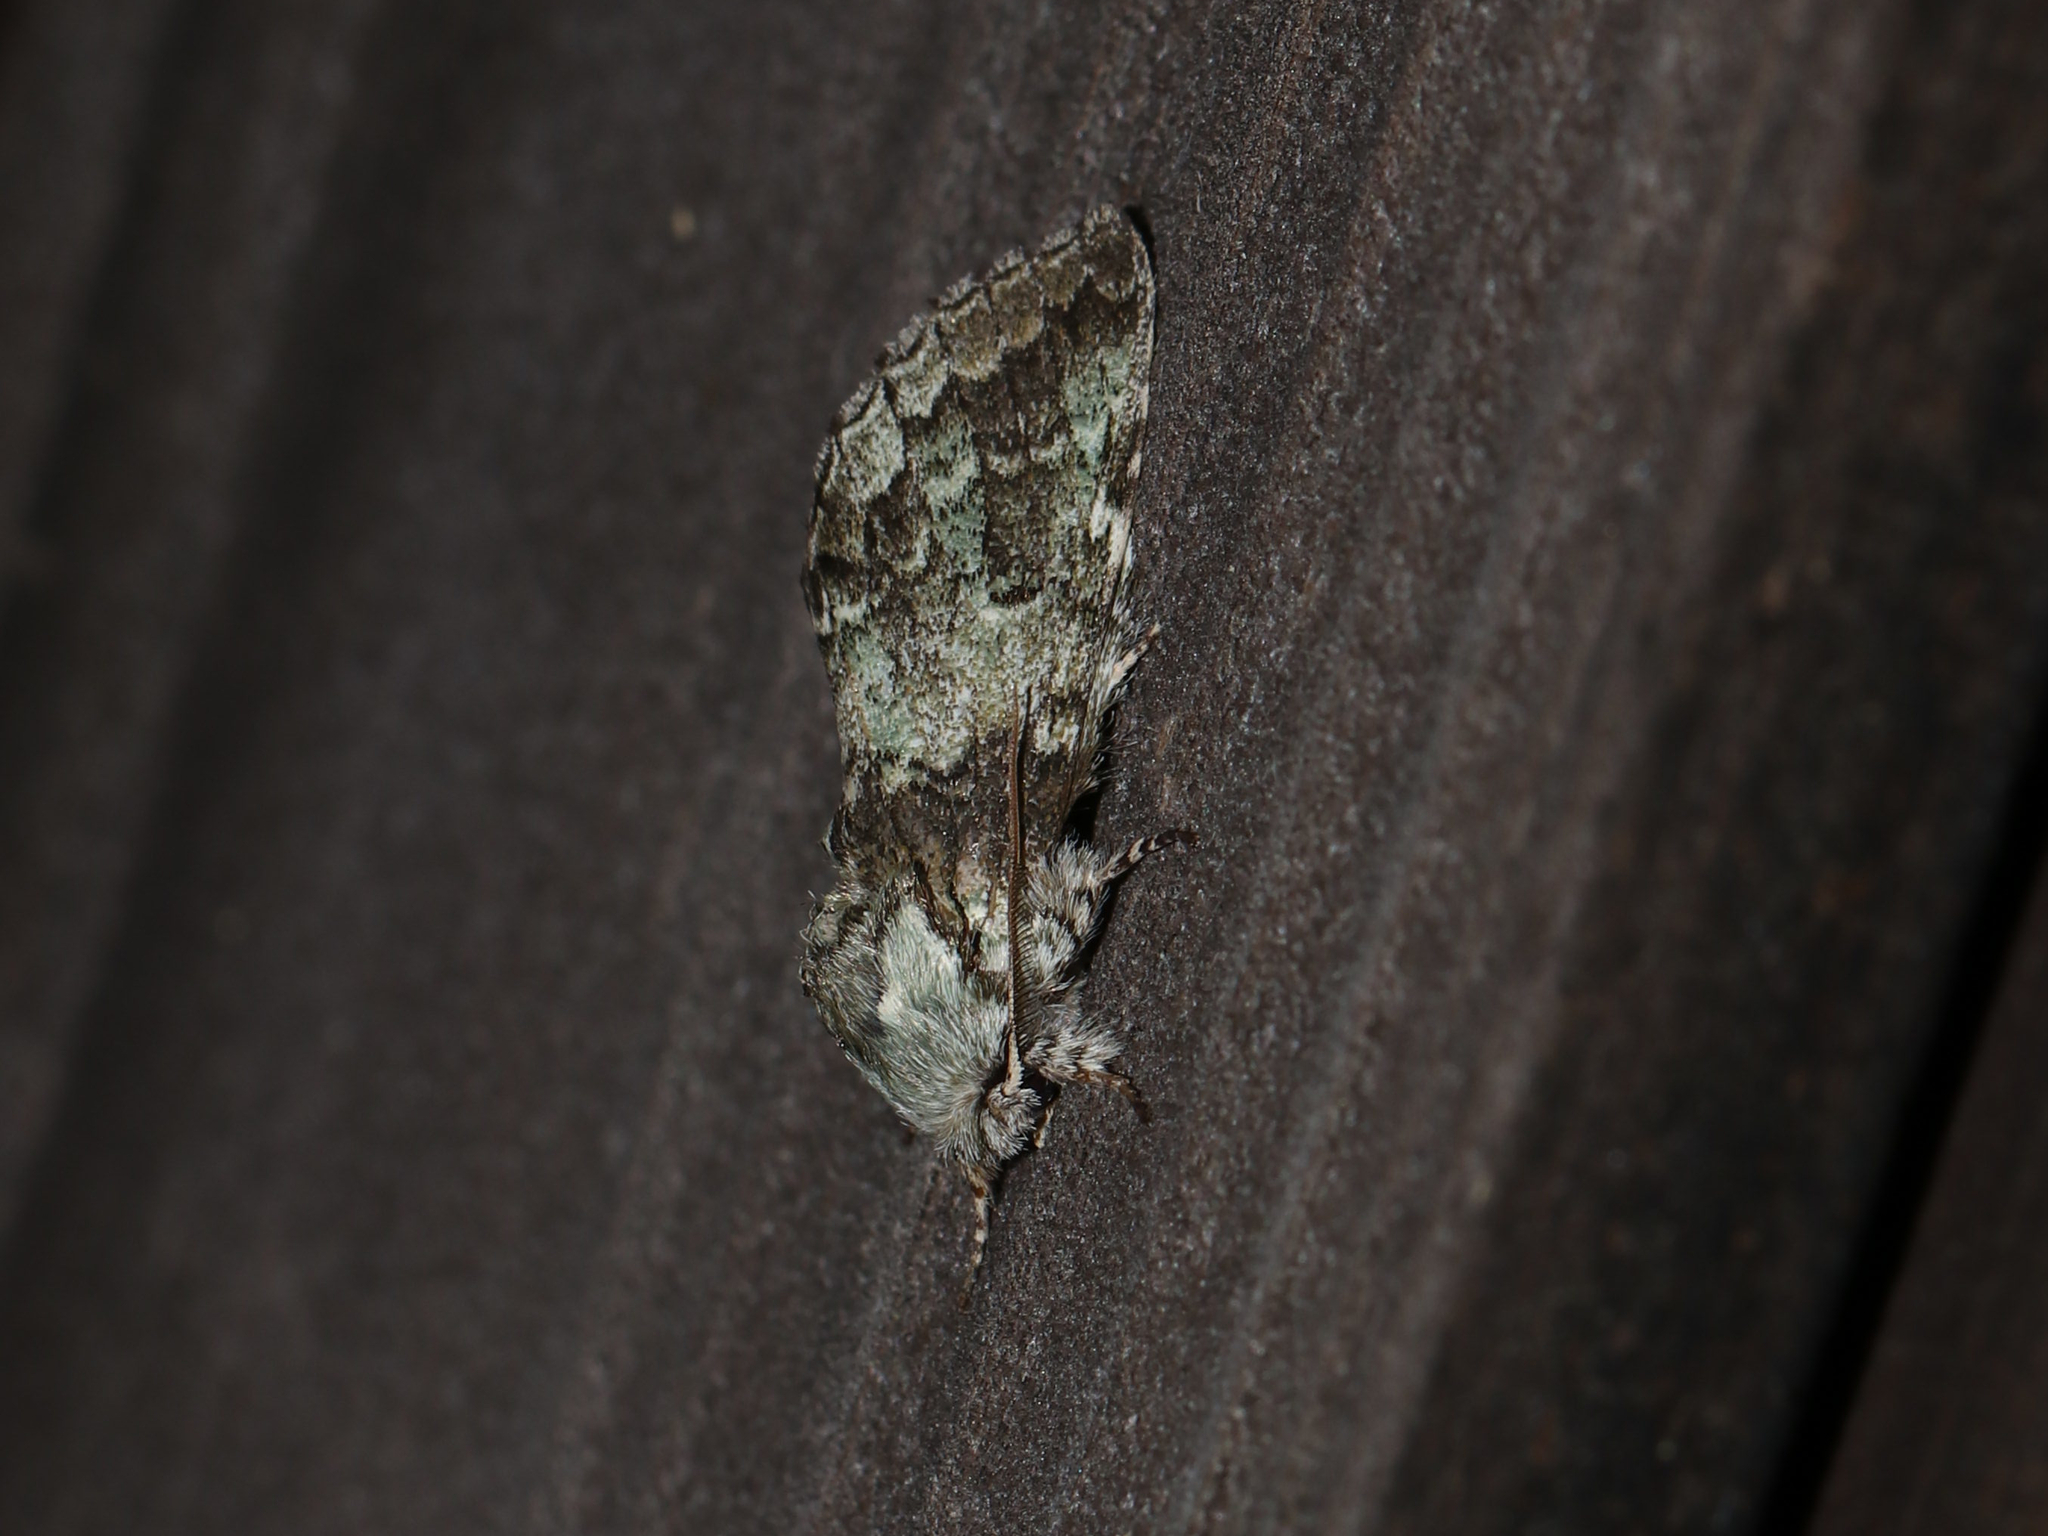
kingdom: Animalia
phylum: Arthropoda
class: Insecta
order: Lepidoptera
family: Notodontidae
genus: Macrurocampa
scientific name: Macrurocampa marthesia
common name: Mottled prominent
